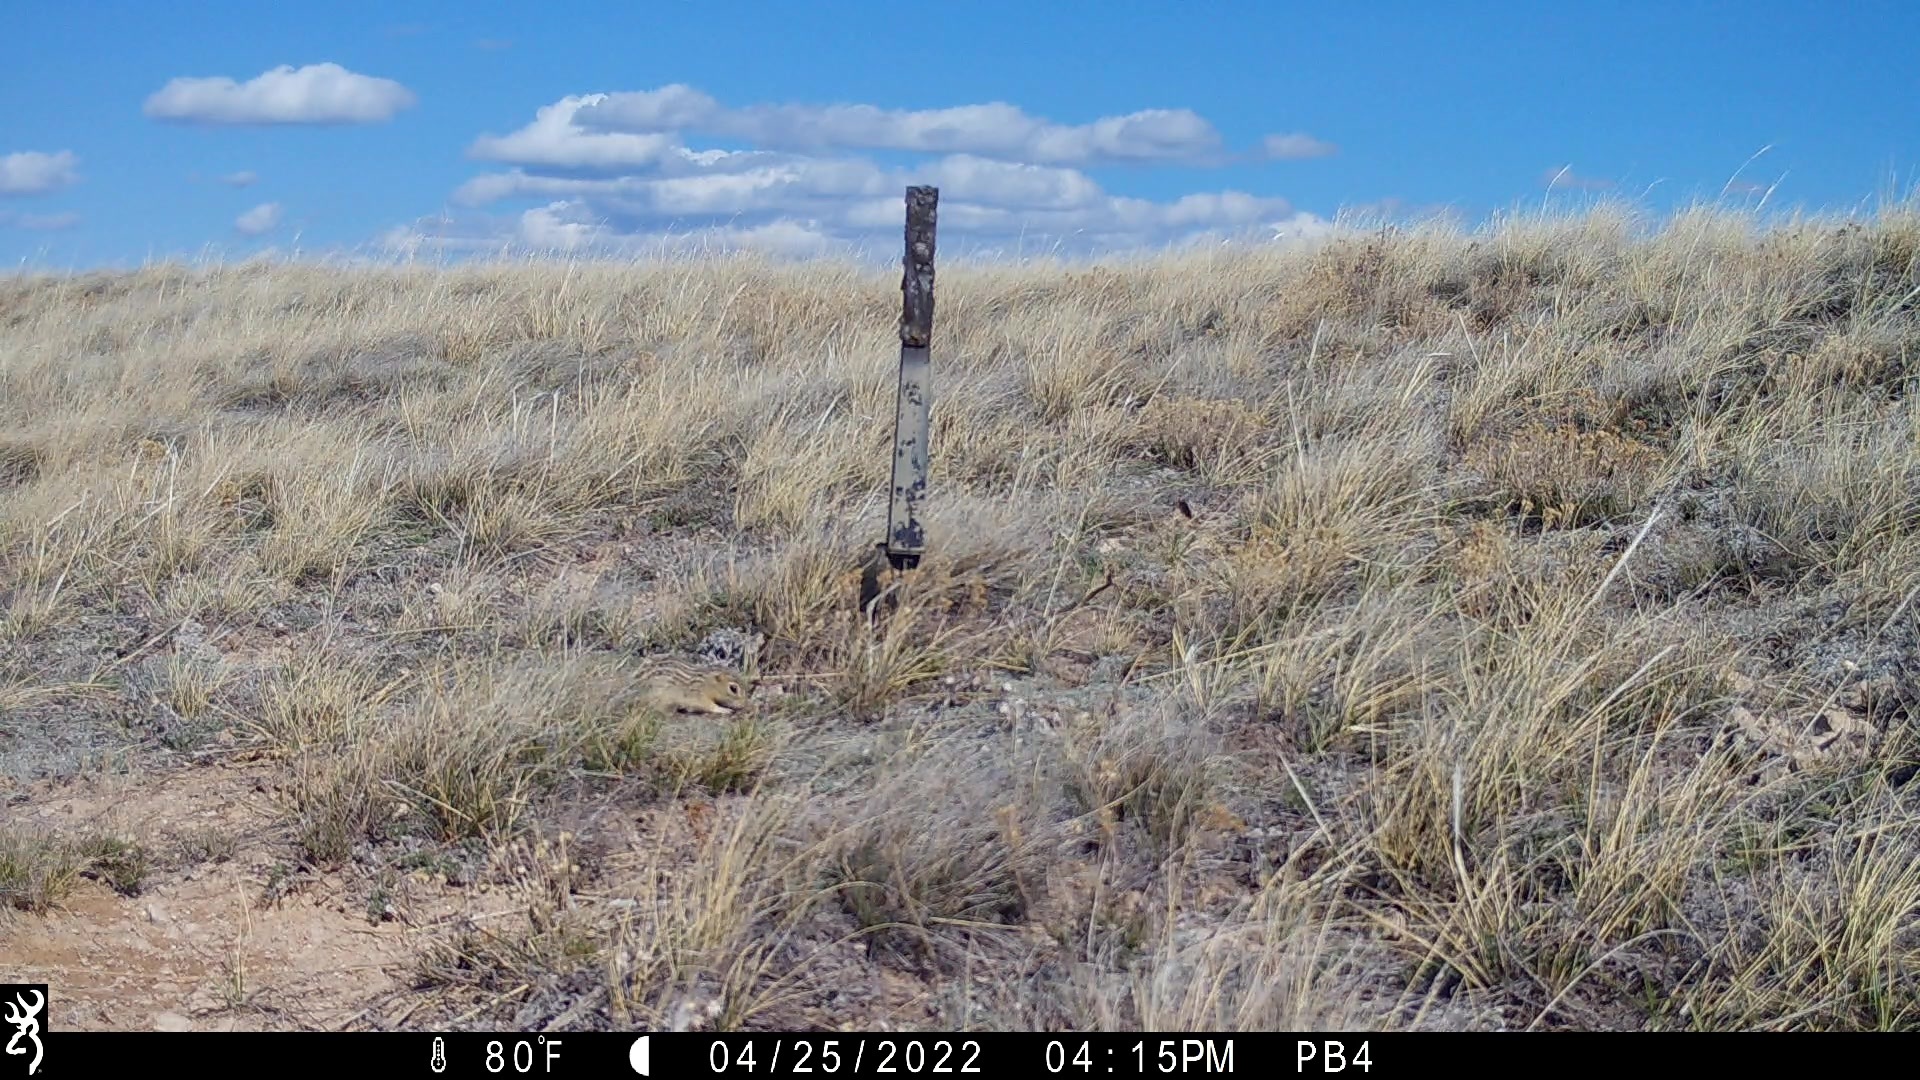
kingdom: Animalia
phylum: Chordata
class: Mammalia
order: Rodentia
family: Sciuridae
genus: Ictidomys
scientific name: Ictidomys tridecemlineatus
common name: Thirteen-lined ground squirrel
